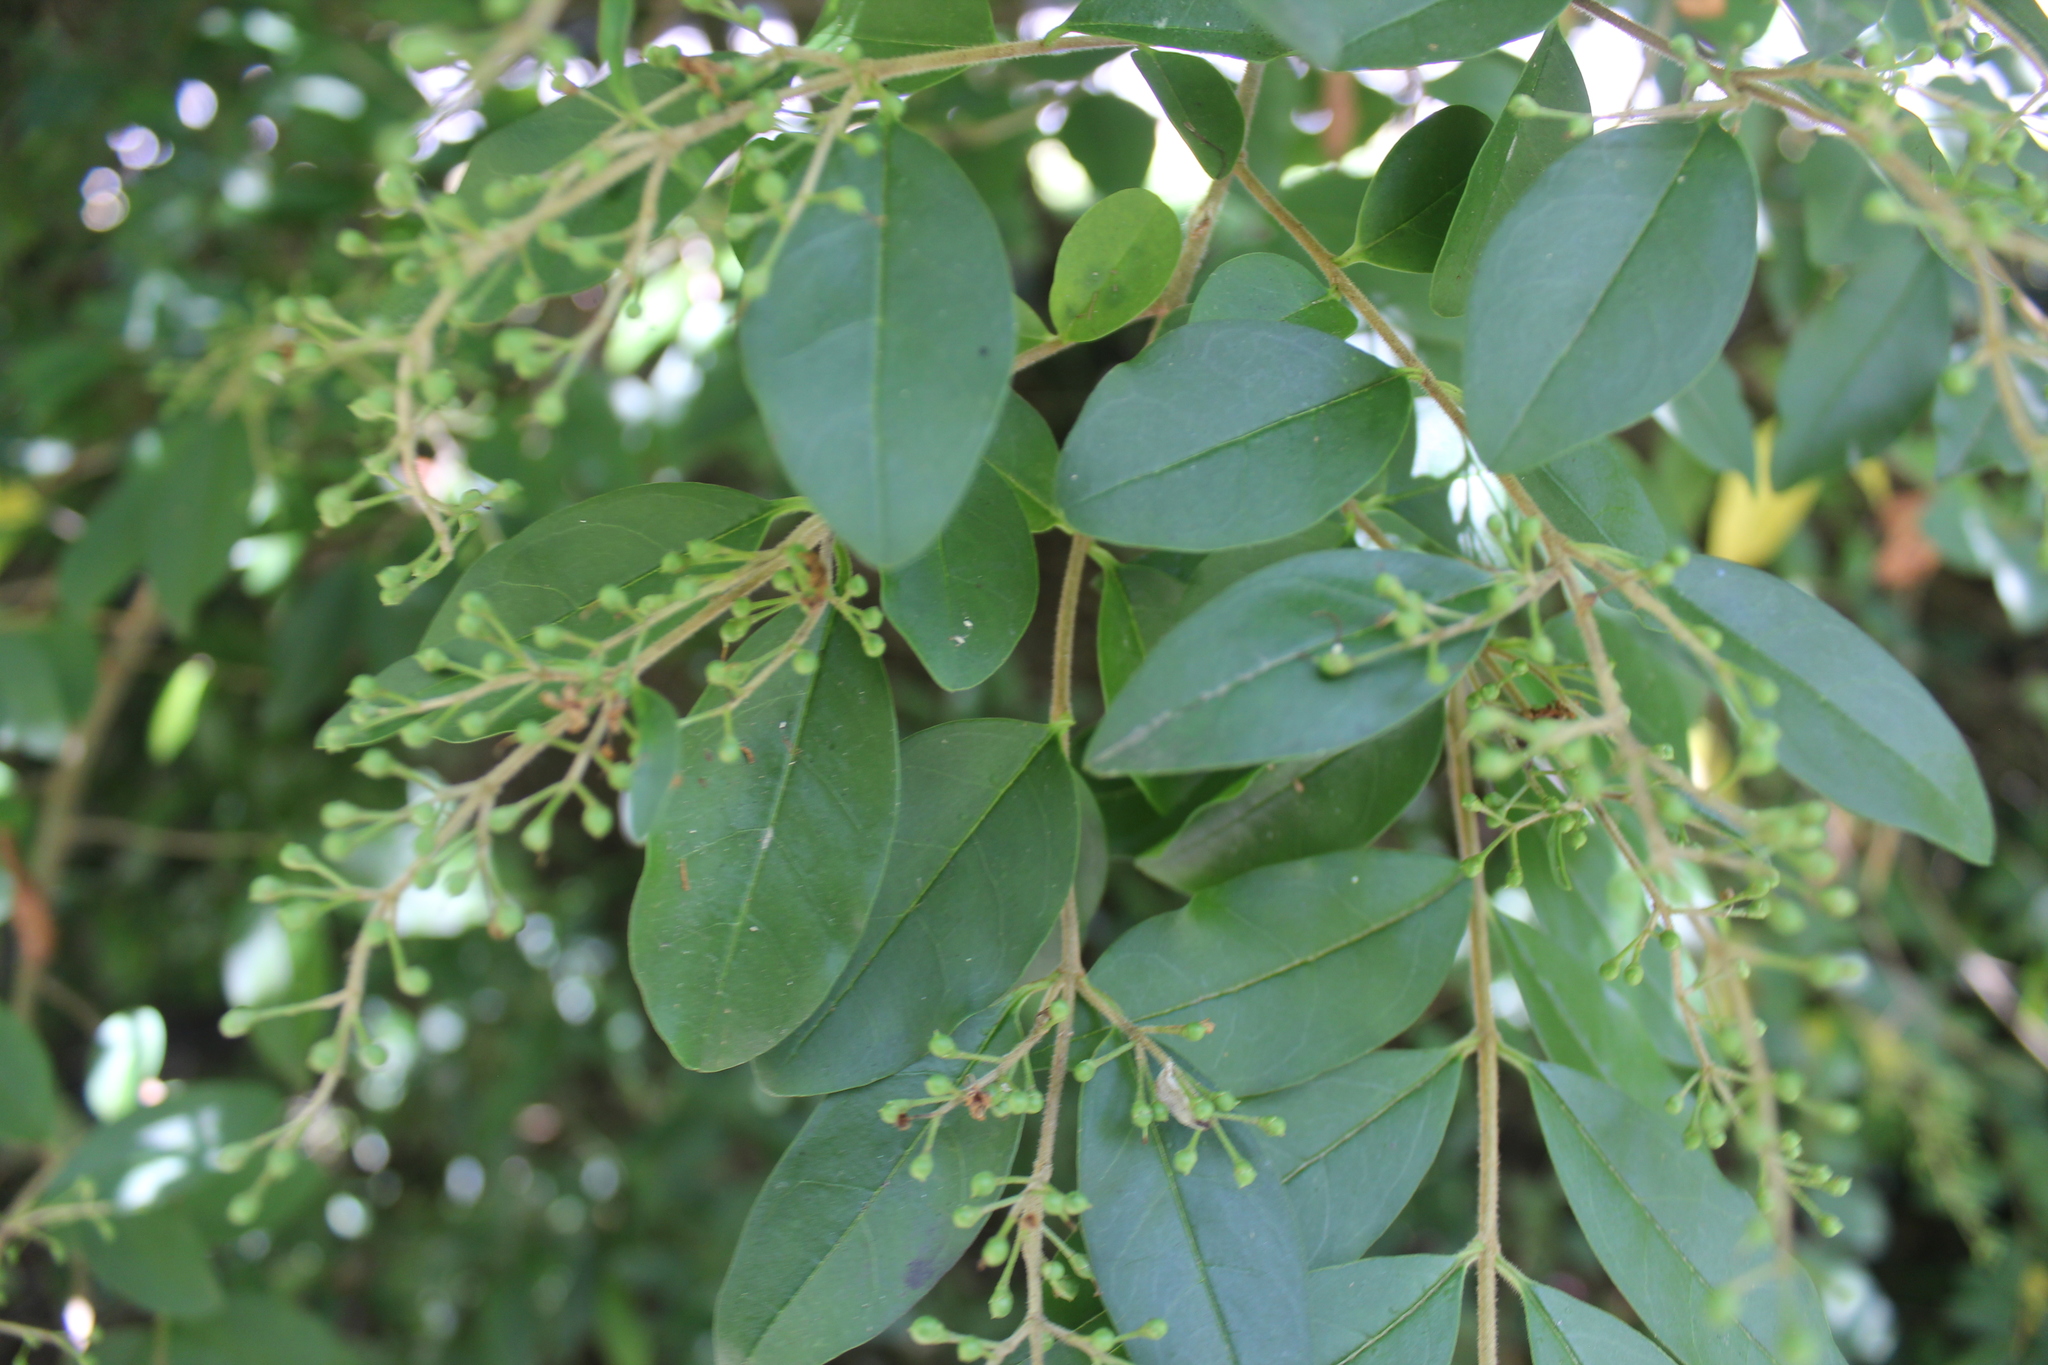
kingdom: Plantae
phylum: Tracheophyta
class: Magnoliopsida
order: Lamiales
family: Oleaceae
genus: Ligustrum
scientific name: Ligustrum sinense
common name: Chinese privet
